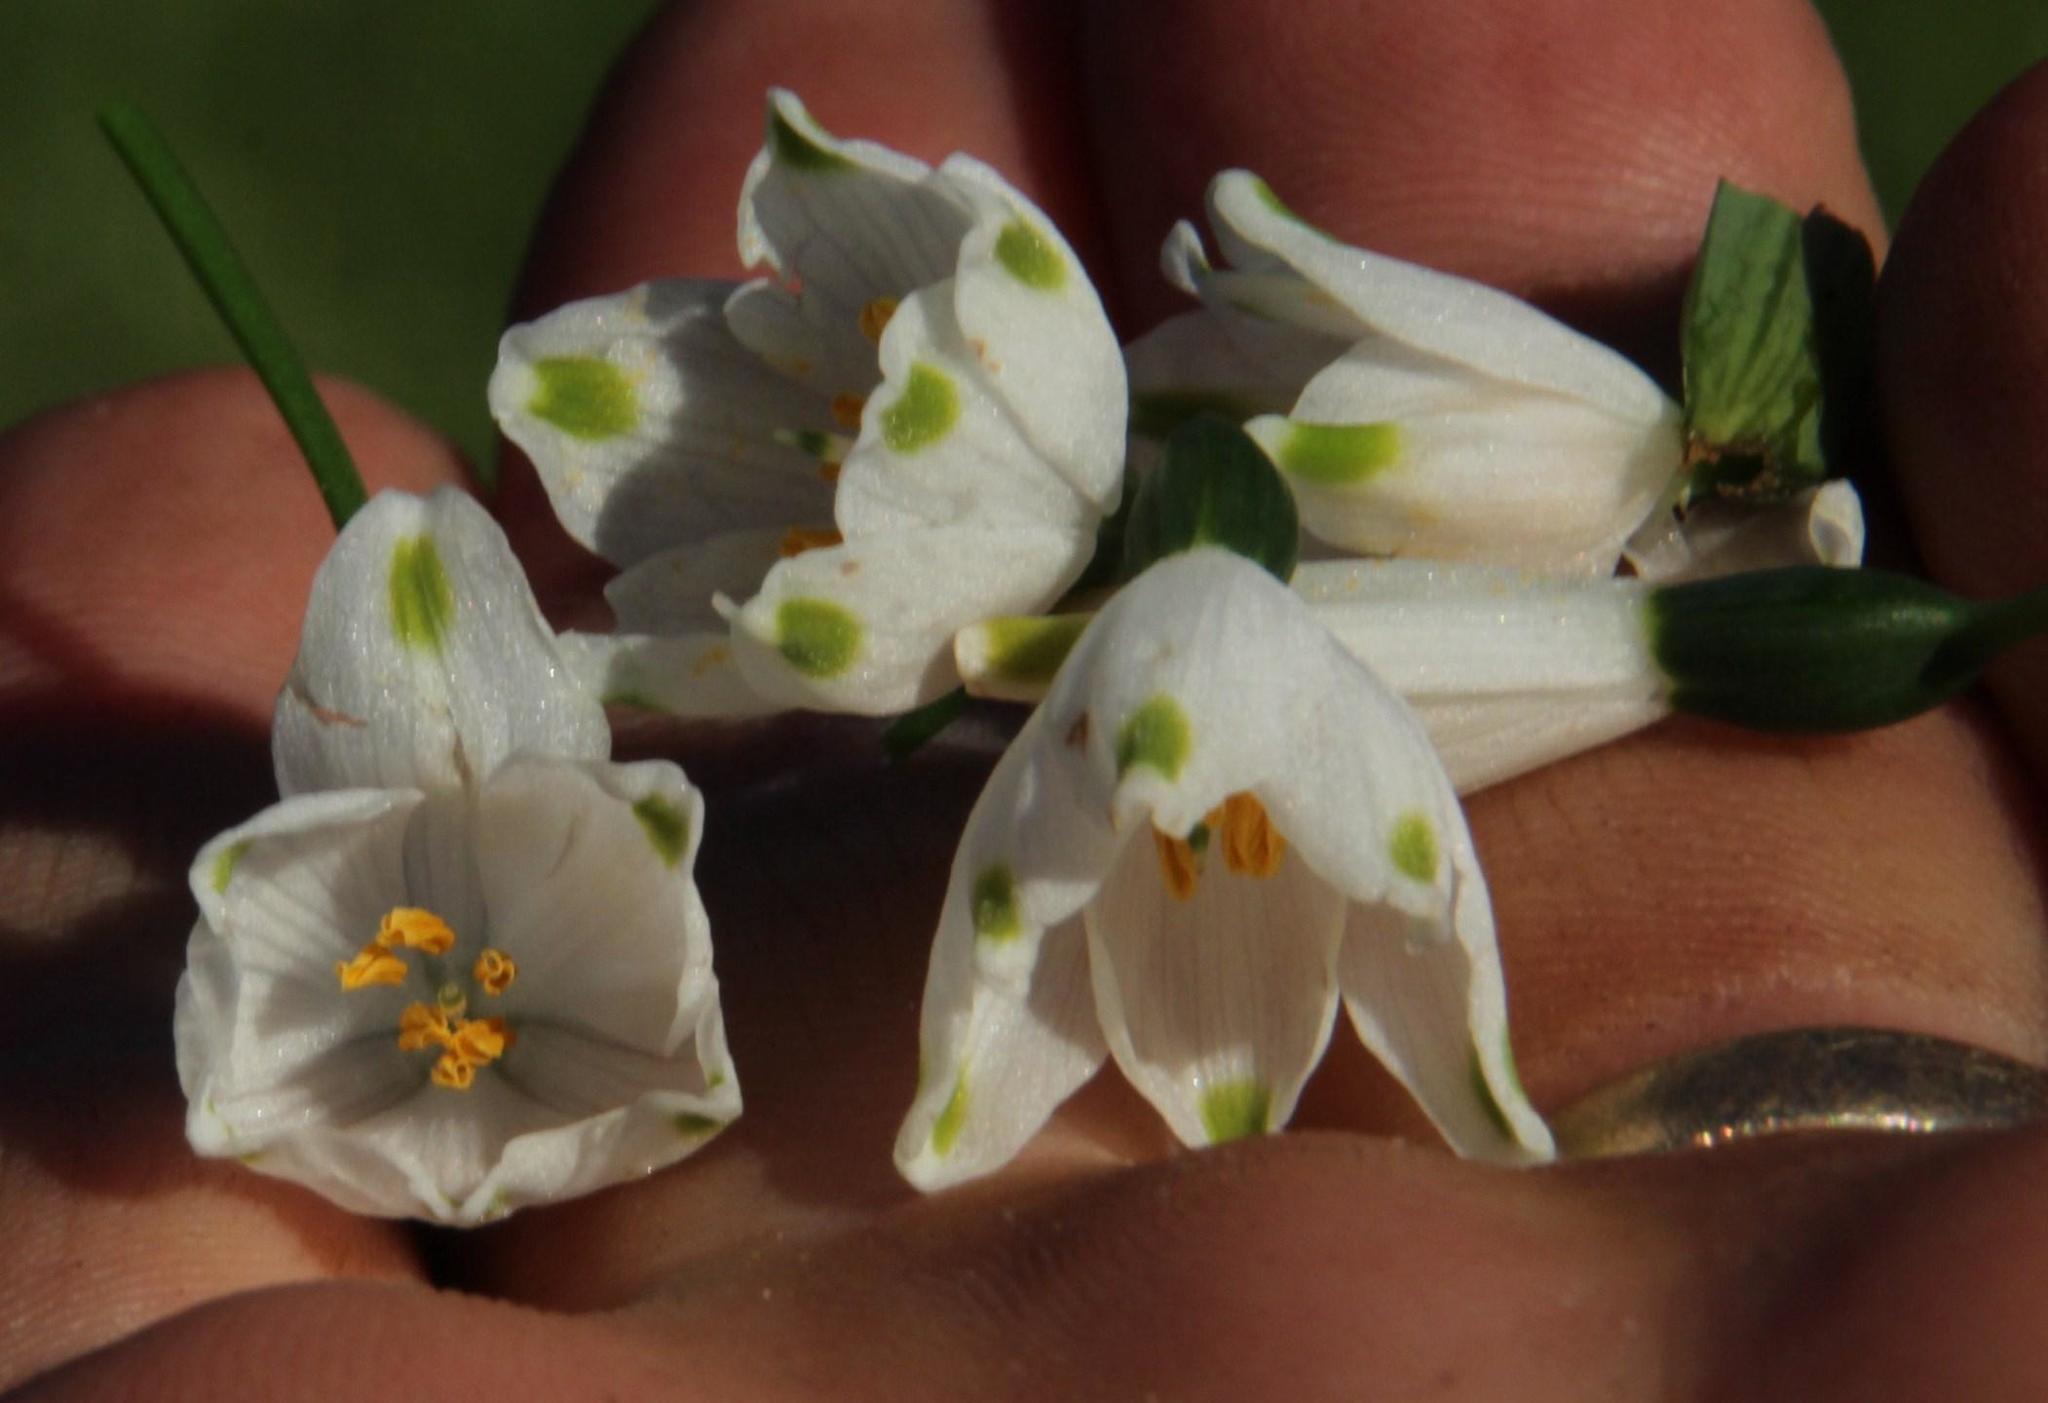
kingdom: Plantae
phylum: Tracheophyta
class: Liliopsida
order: Asparagales
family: Amaryllidaceae
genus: Leucojum
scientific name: Leucojum aestivum
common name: Summer snowflake
